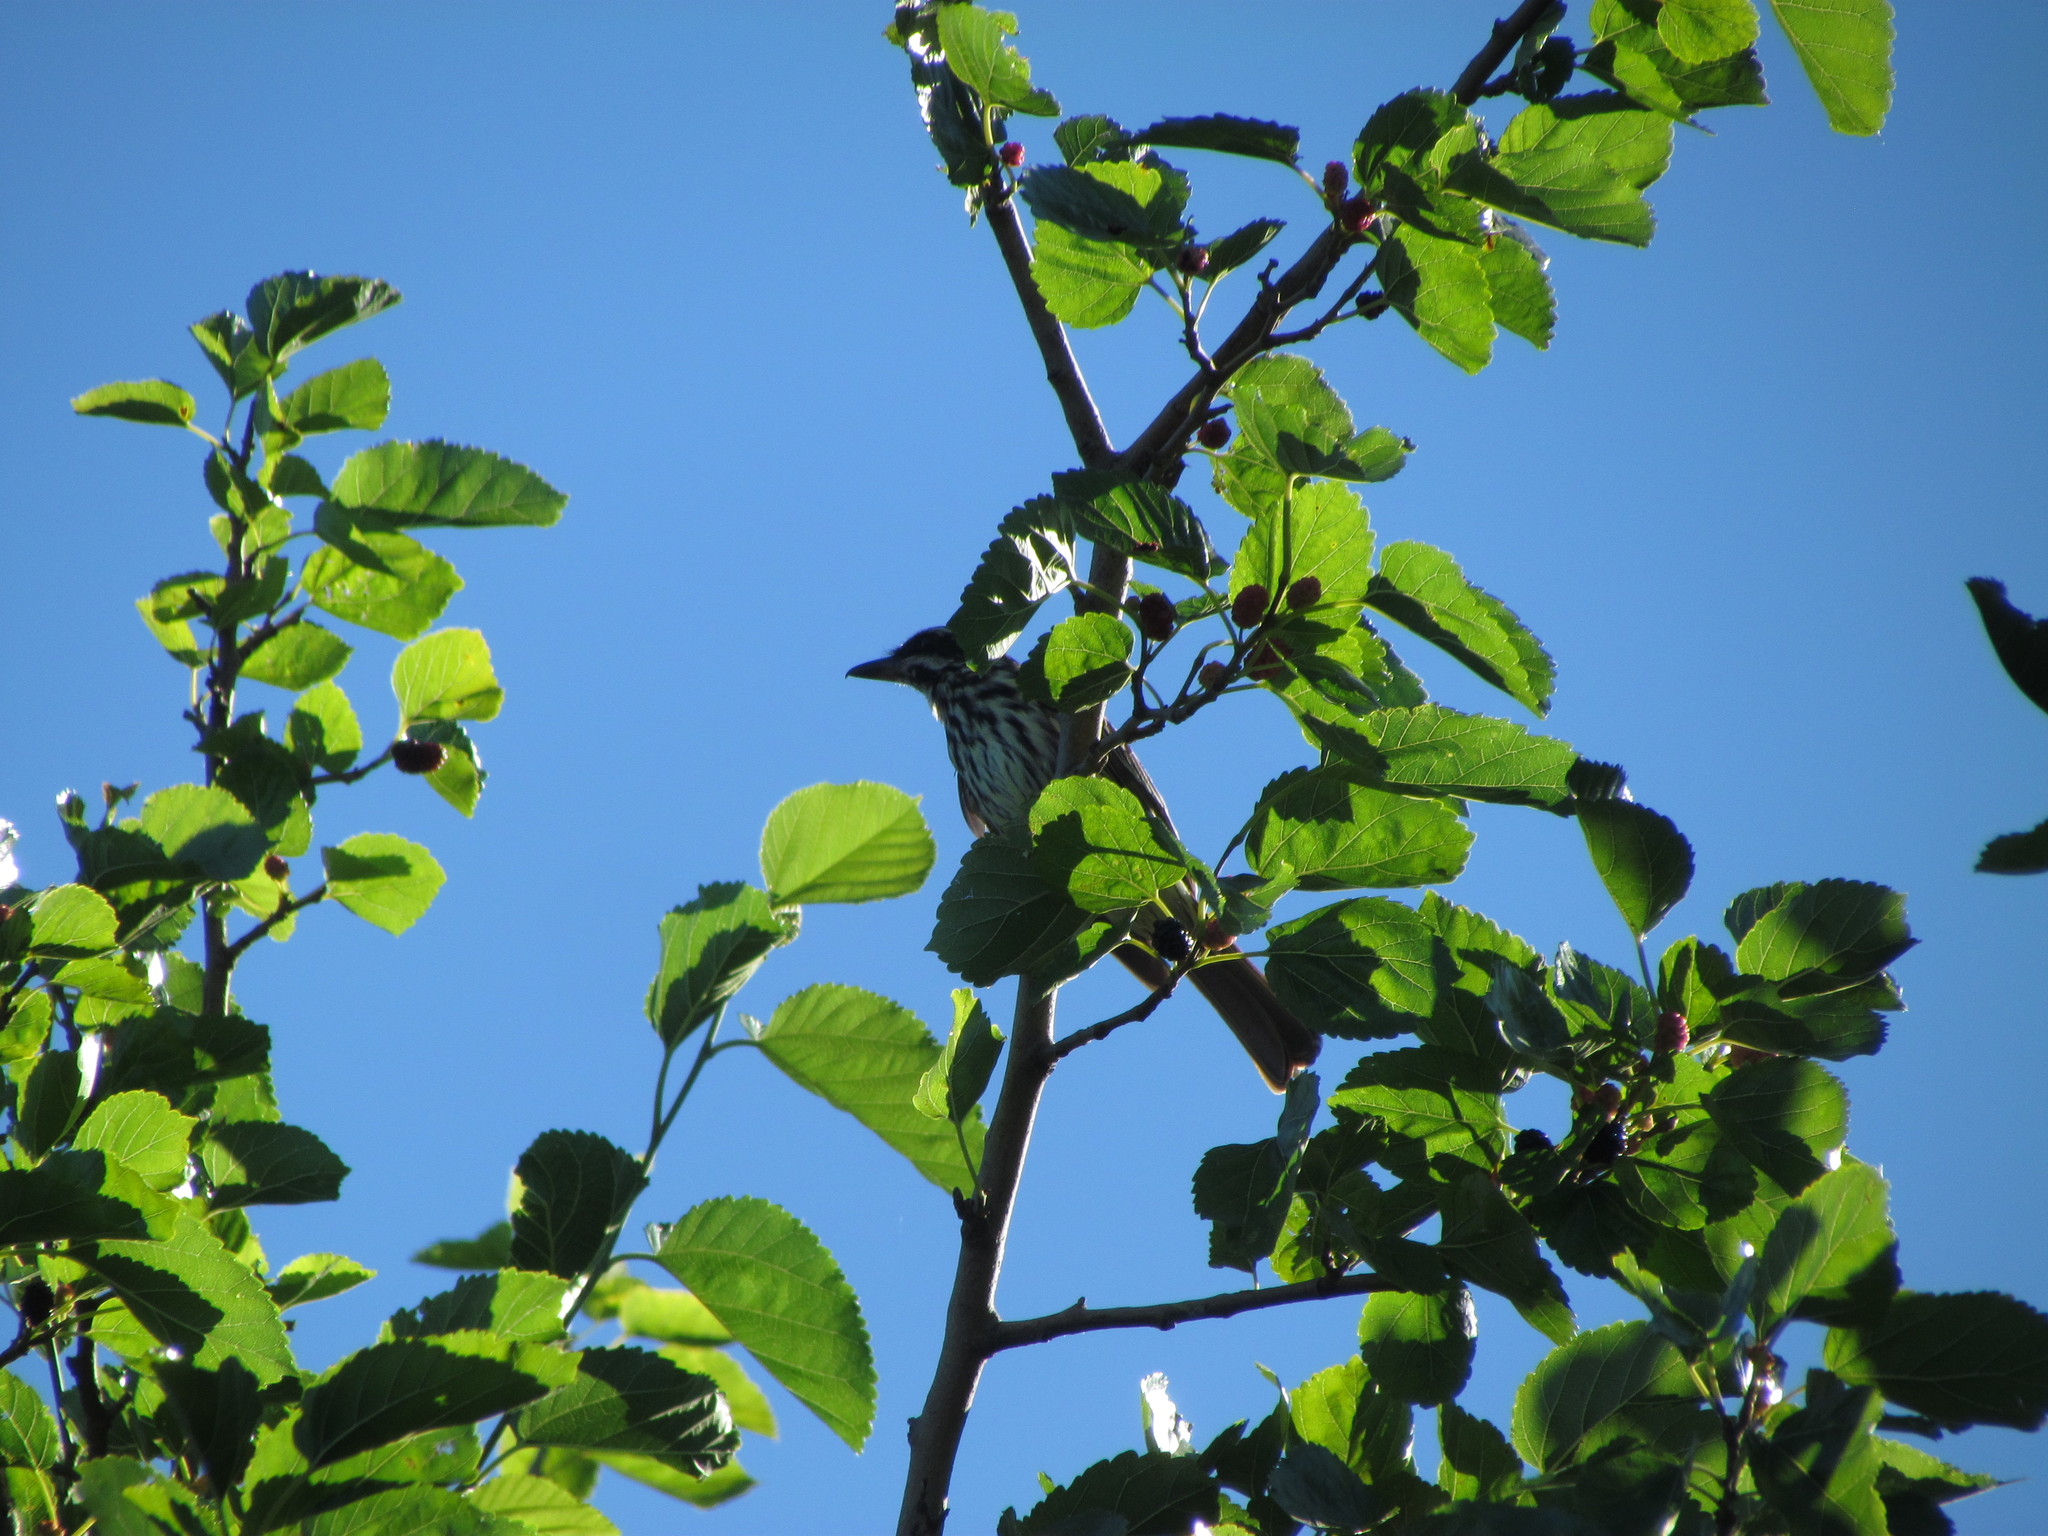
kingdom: Animalia
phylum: Chordata
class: Aves
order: Passeriformes
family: Tyrannidae
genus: Myiodynastes
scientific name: Myiodynastes maculatus
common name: Streaked flycatcher
